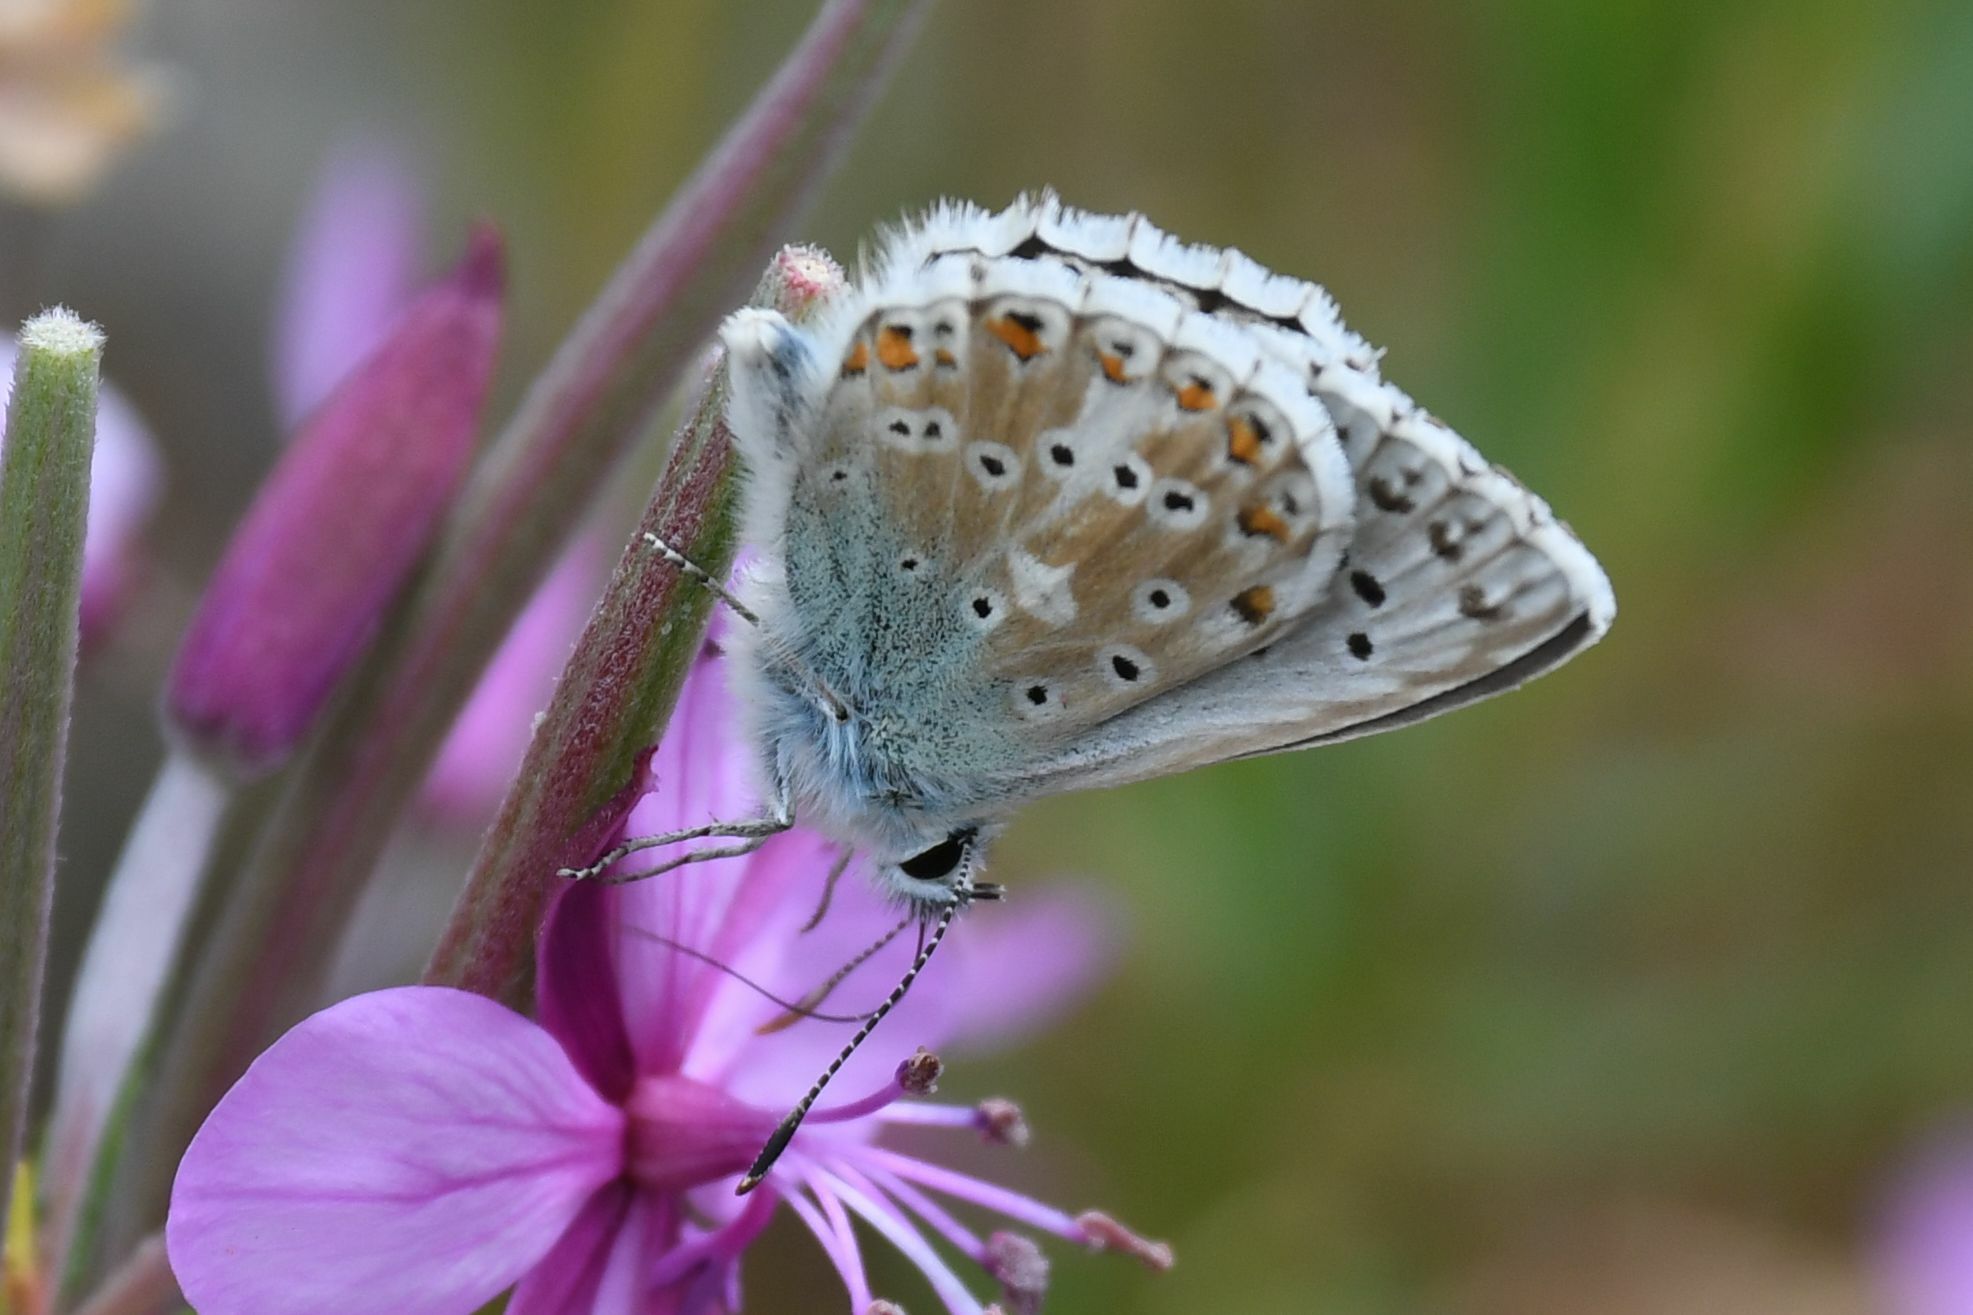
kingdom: Animalia
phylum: Arthropoda
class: Insecta
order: Lepidoptera
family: Lycaenidae
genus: Lysandra
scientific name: Lysandra coridon
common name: Chalkhill blue
